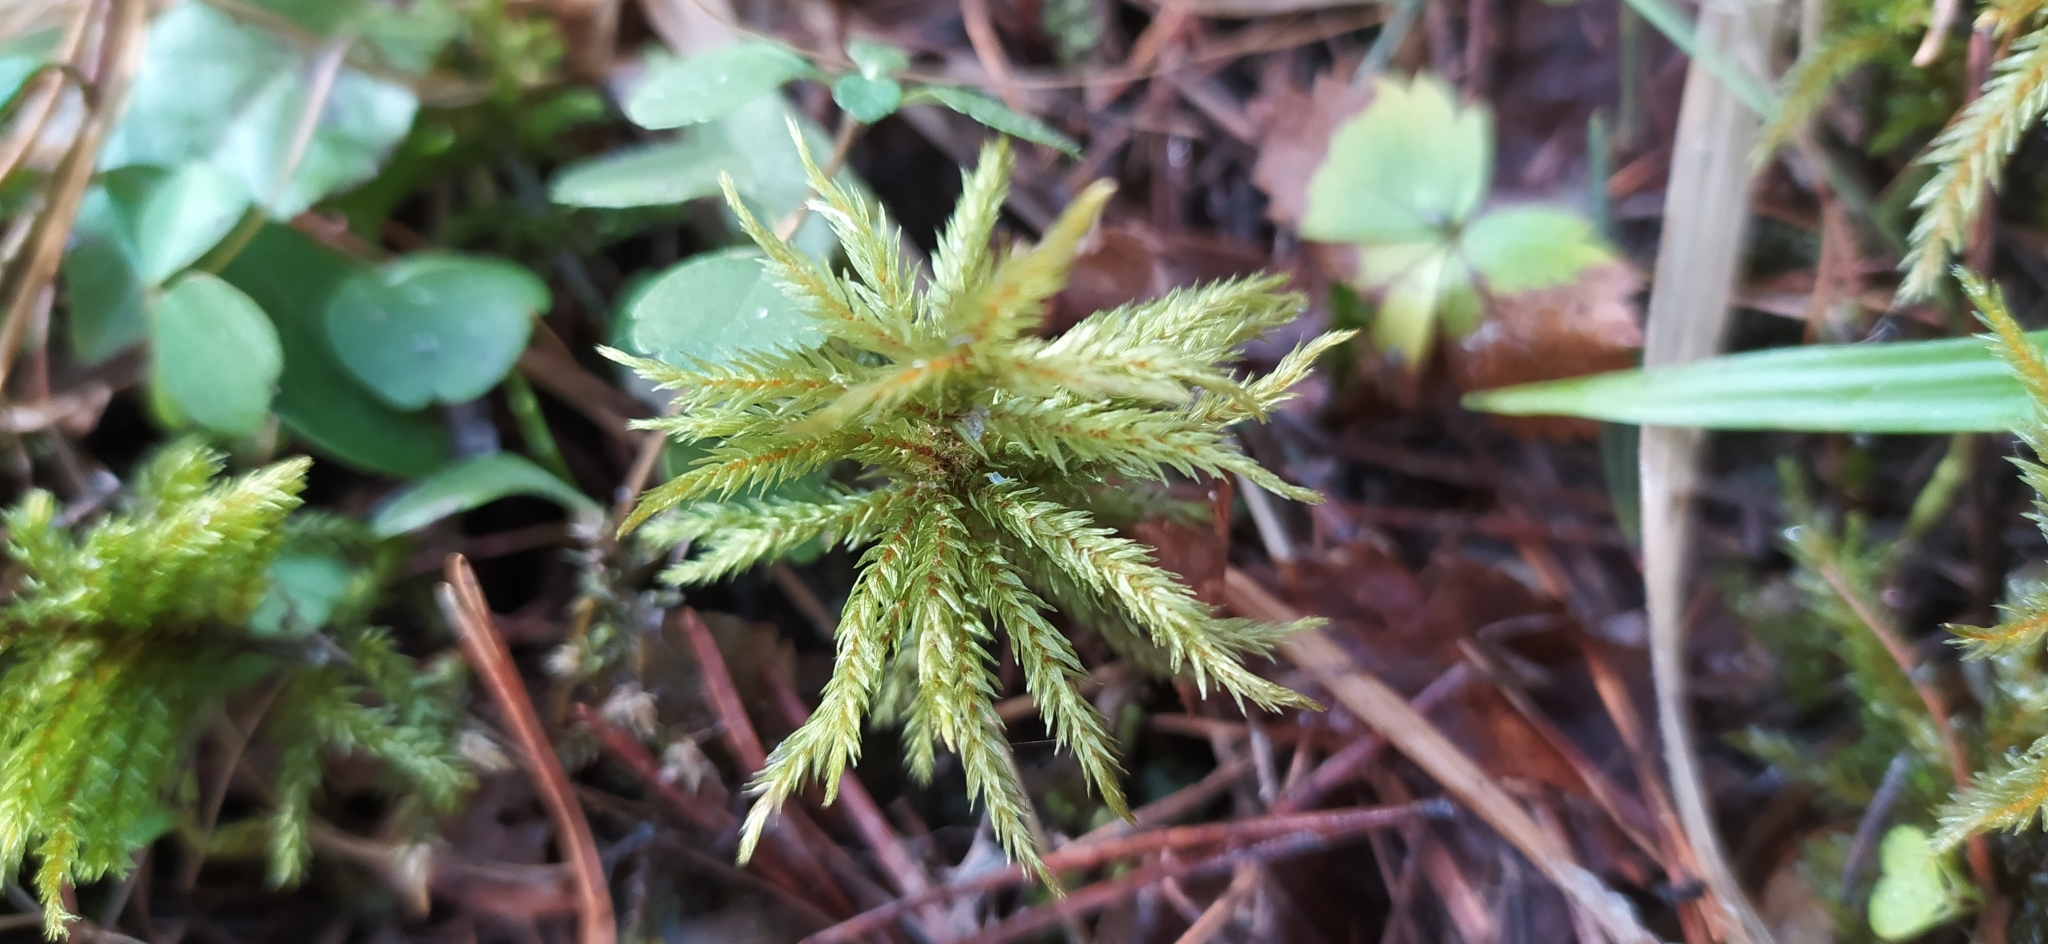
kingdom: Plantae
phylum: Bryophyta
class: Bryopsida
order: Hypnales
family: Climaciaceae
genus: Climacium
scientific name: Climacium dendroides
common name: Northern tree moss
